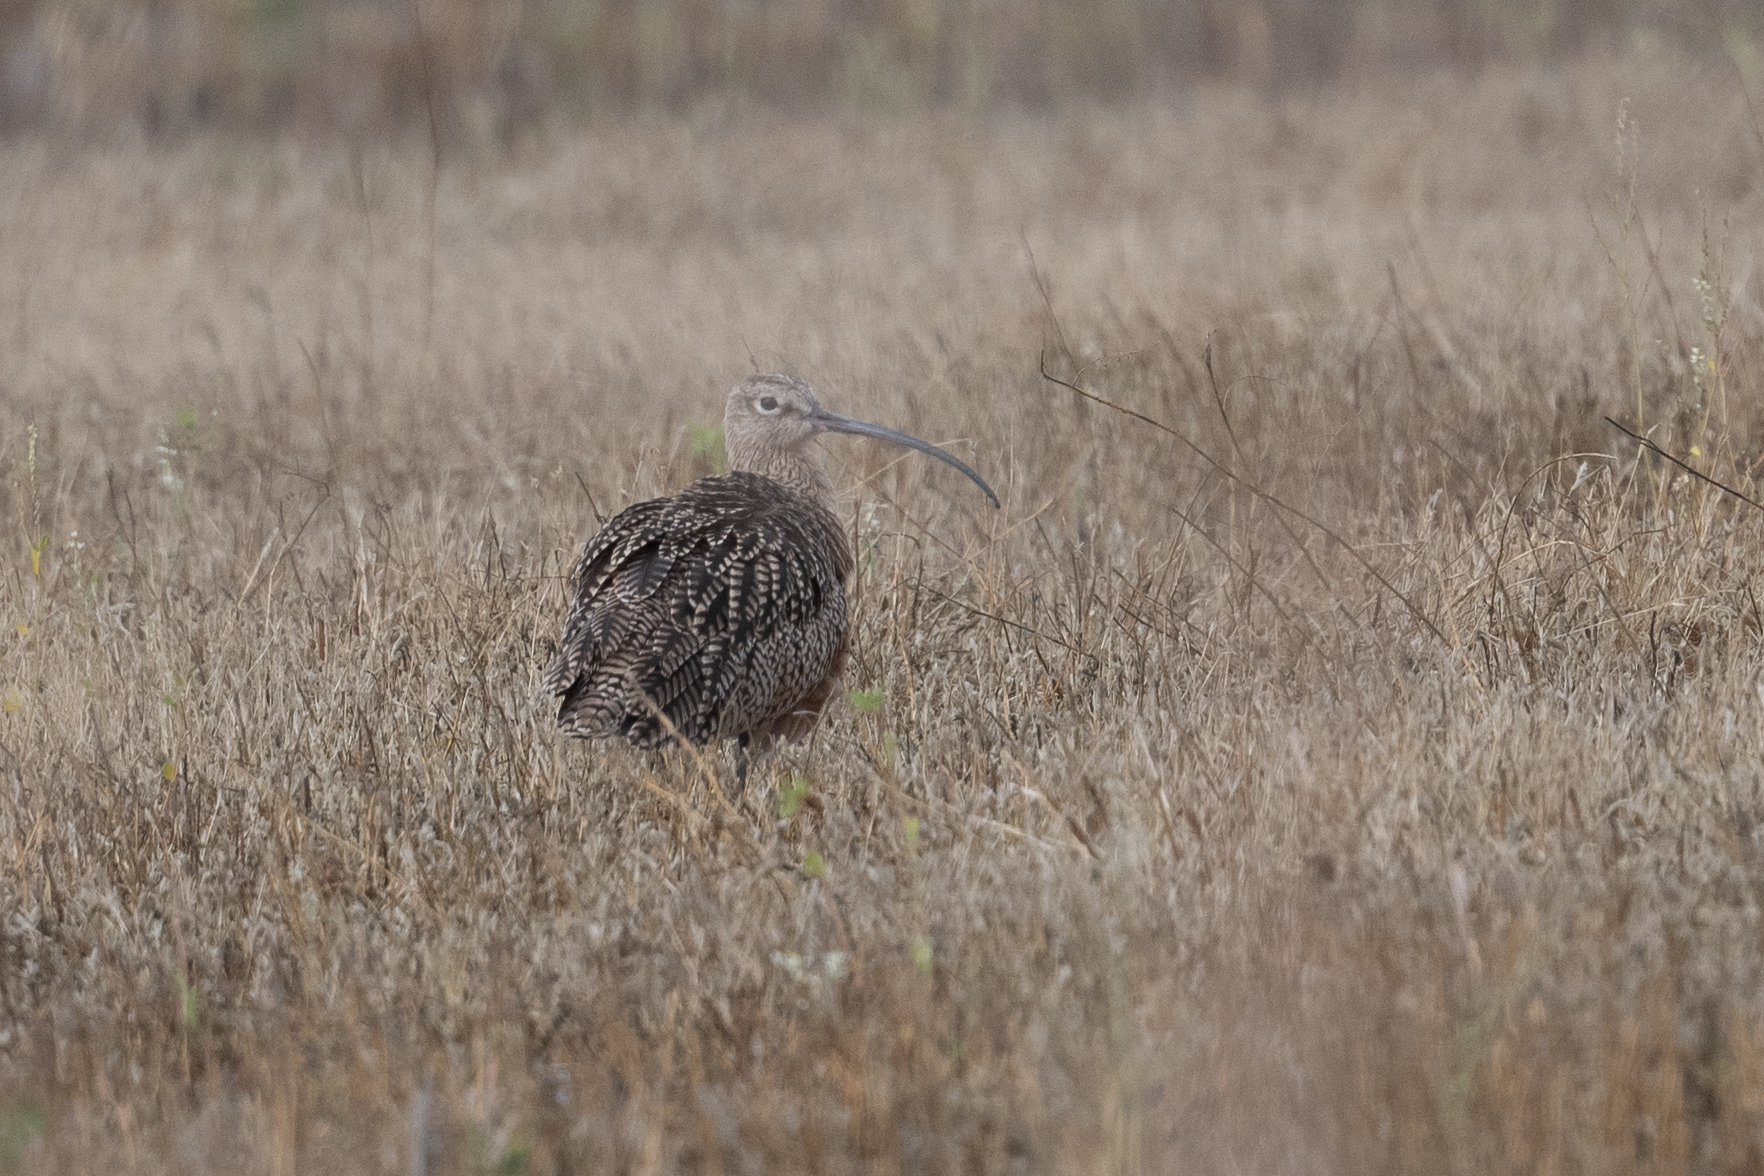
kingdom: Animalia
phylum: Chordata
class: Aves
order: Charadriiformes
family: Scolopacidae
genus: Numenius
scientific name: Numenius americanus
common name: Long-billed curlew
